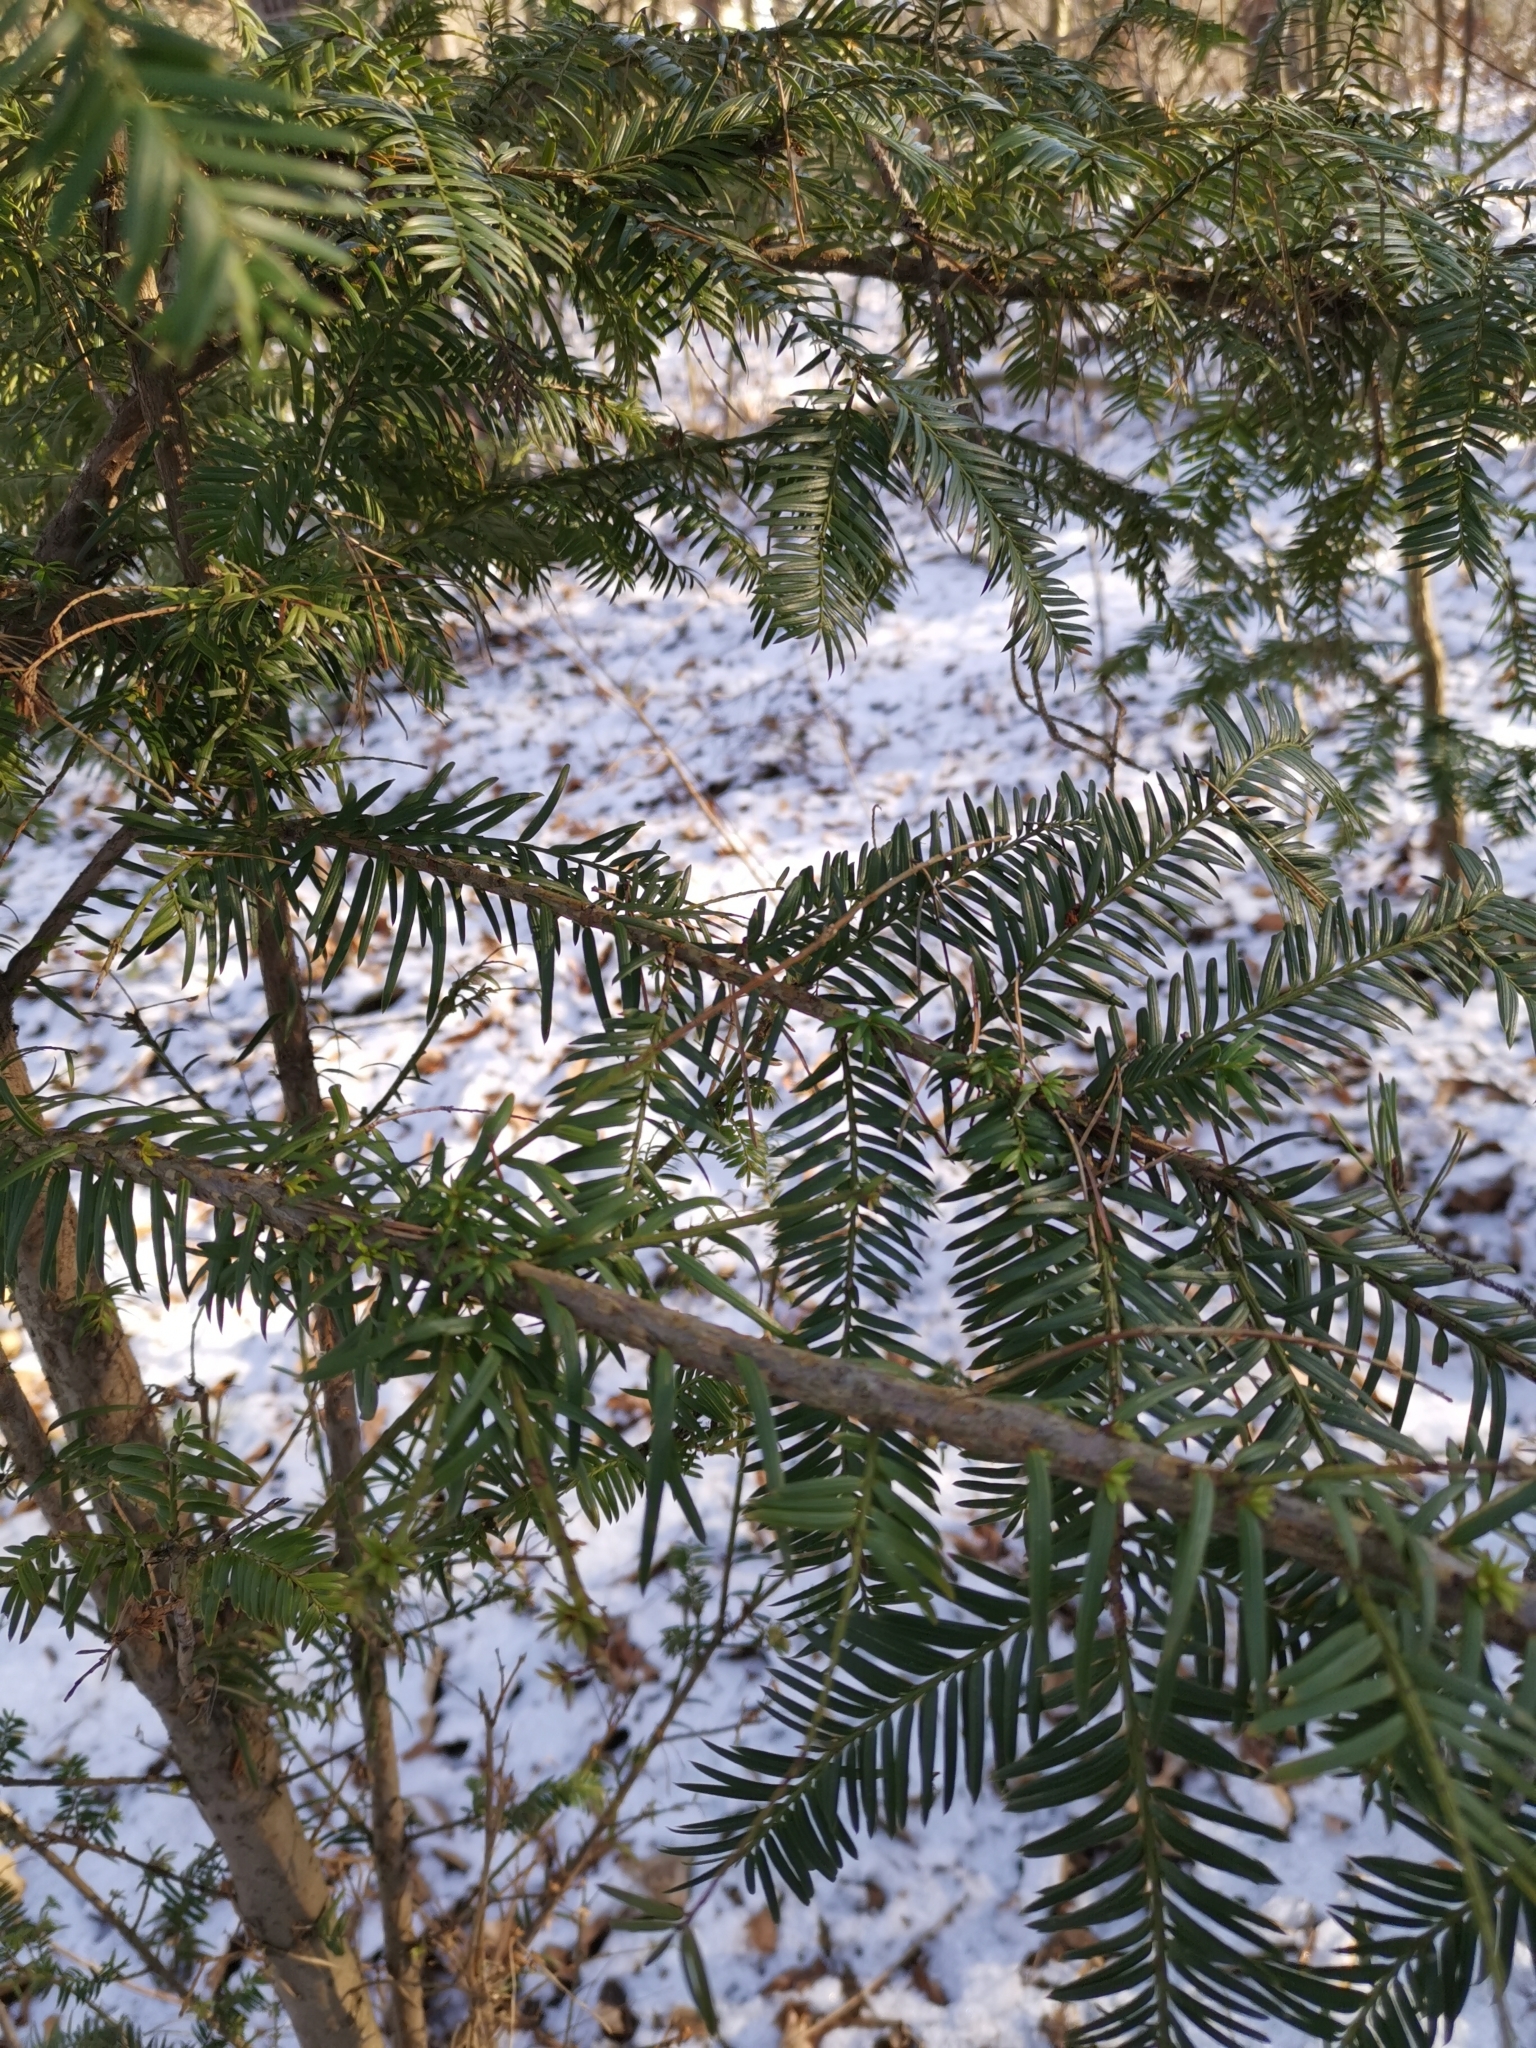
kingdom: Plantae
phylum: Tracheophyta
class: Pinopsida
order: Pinales
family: Taxaceae
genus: Taxus
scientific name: Taxus baccata
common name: Yew
